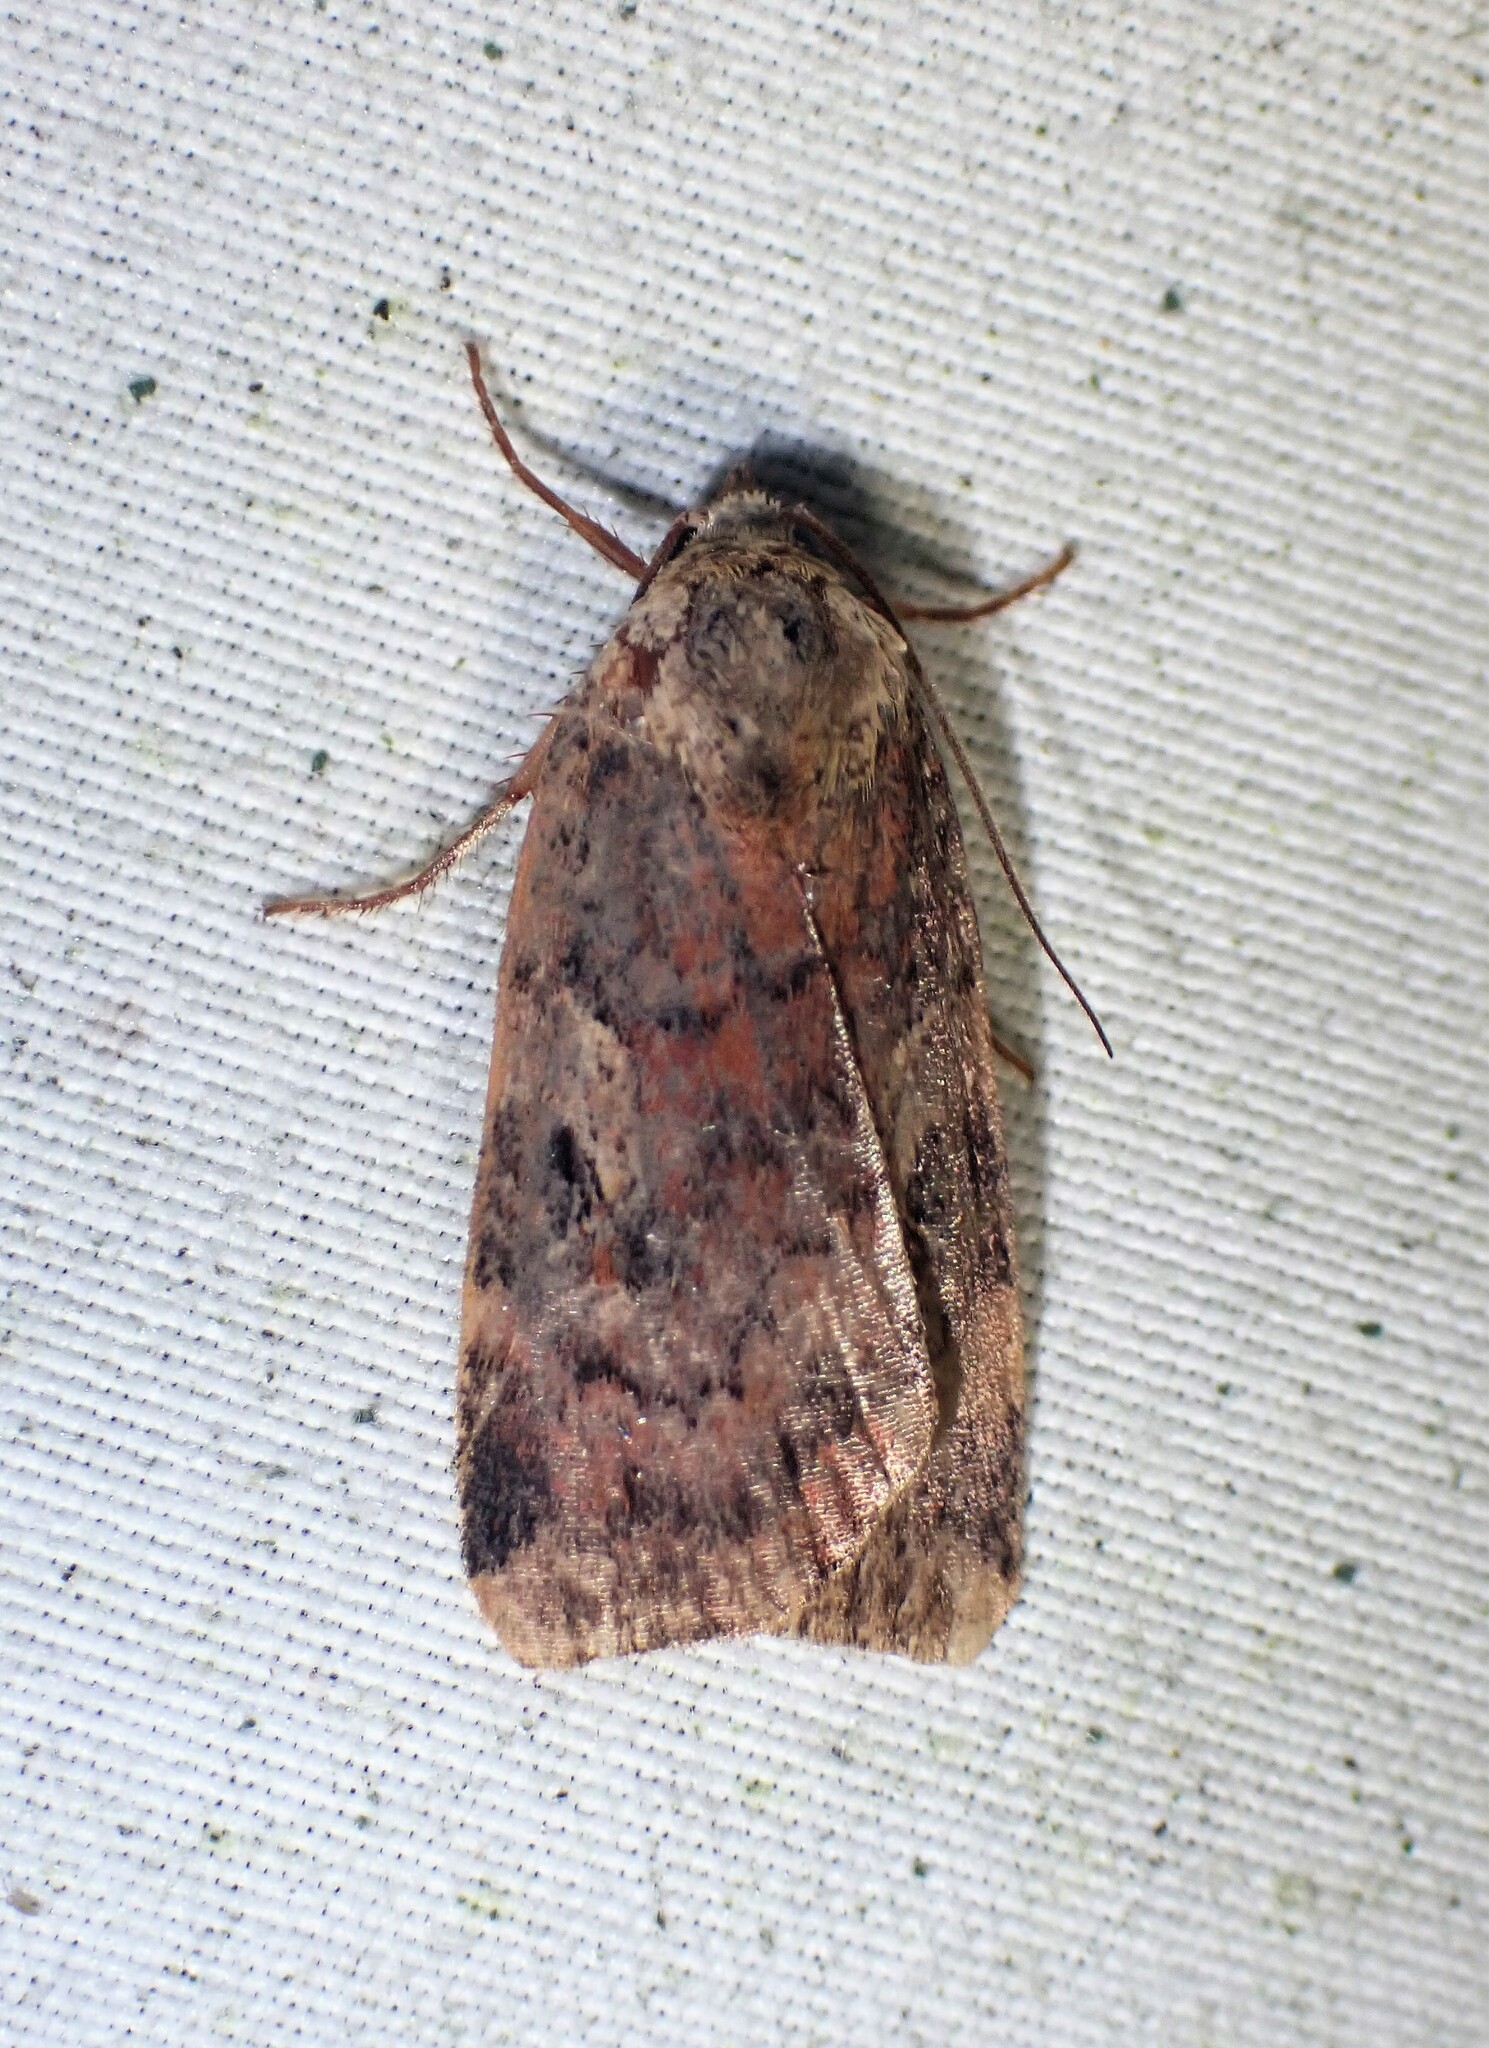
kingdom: Animalia
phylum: Arthropoda
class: Insecta
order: Lepidoptera
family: Noctuidae
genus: Cryptocala
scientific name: Cryptocala acadiensis
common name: Catocaline dart
